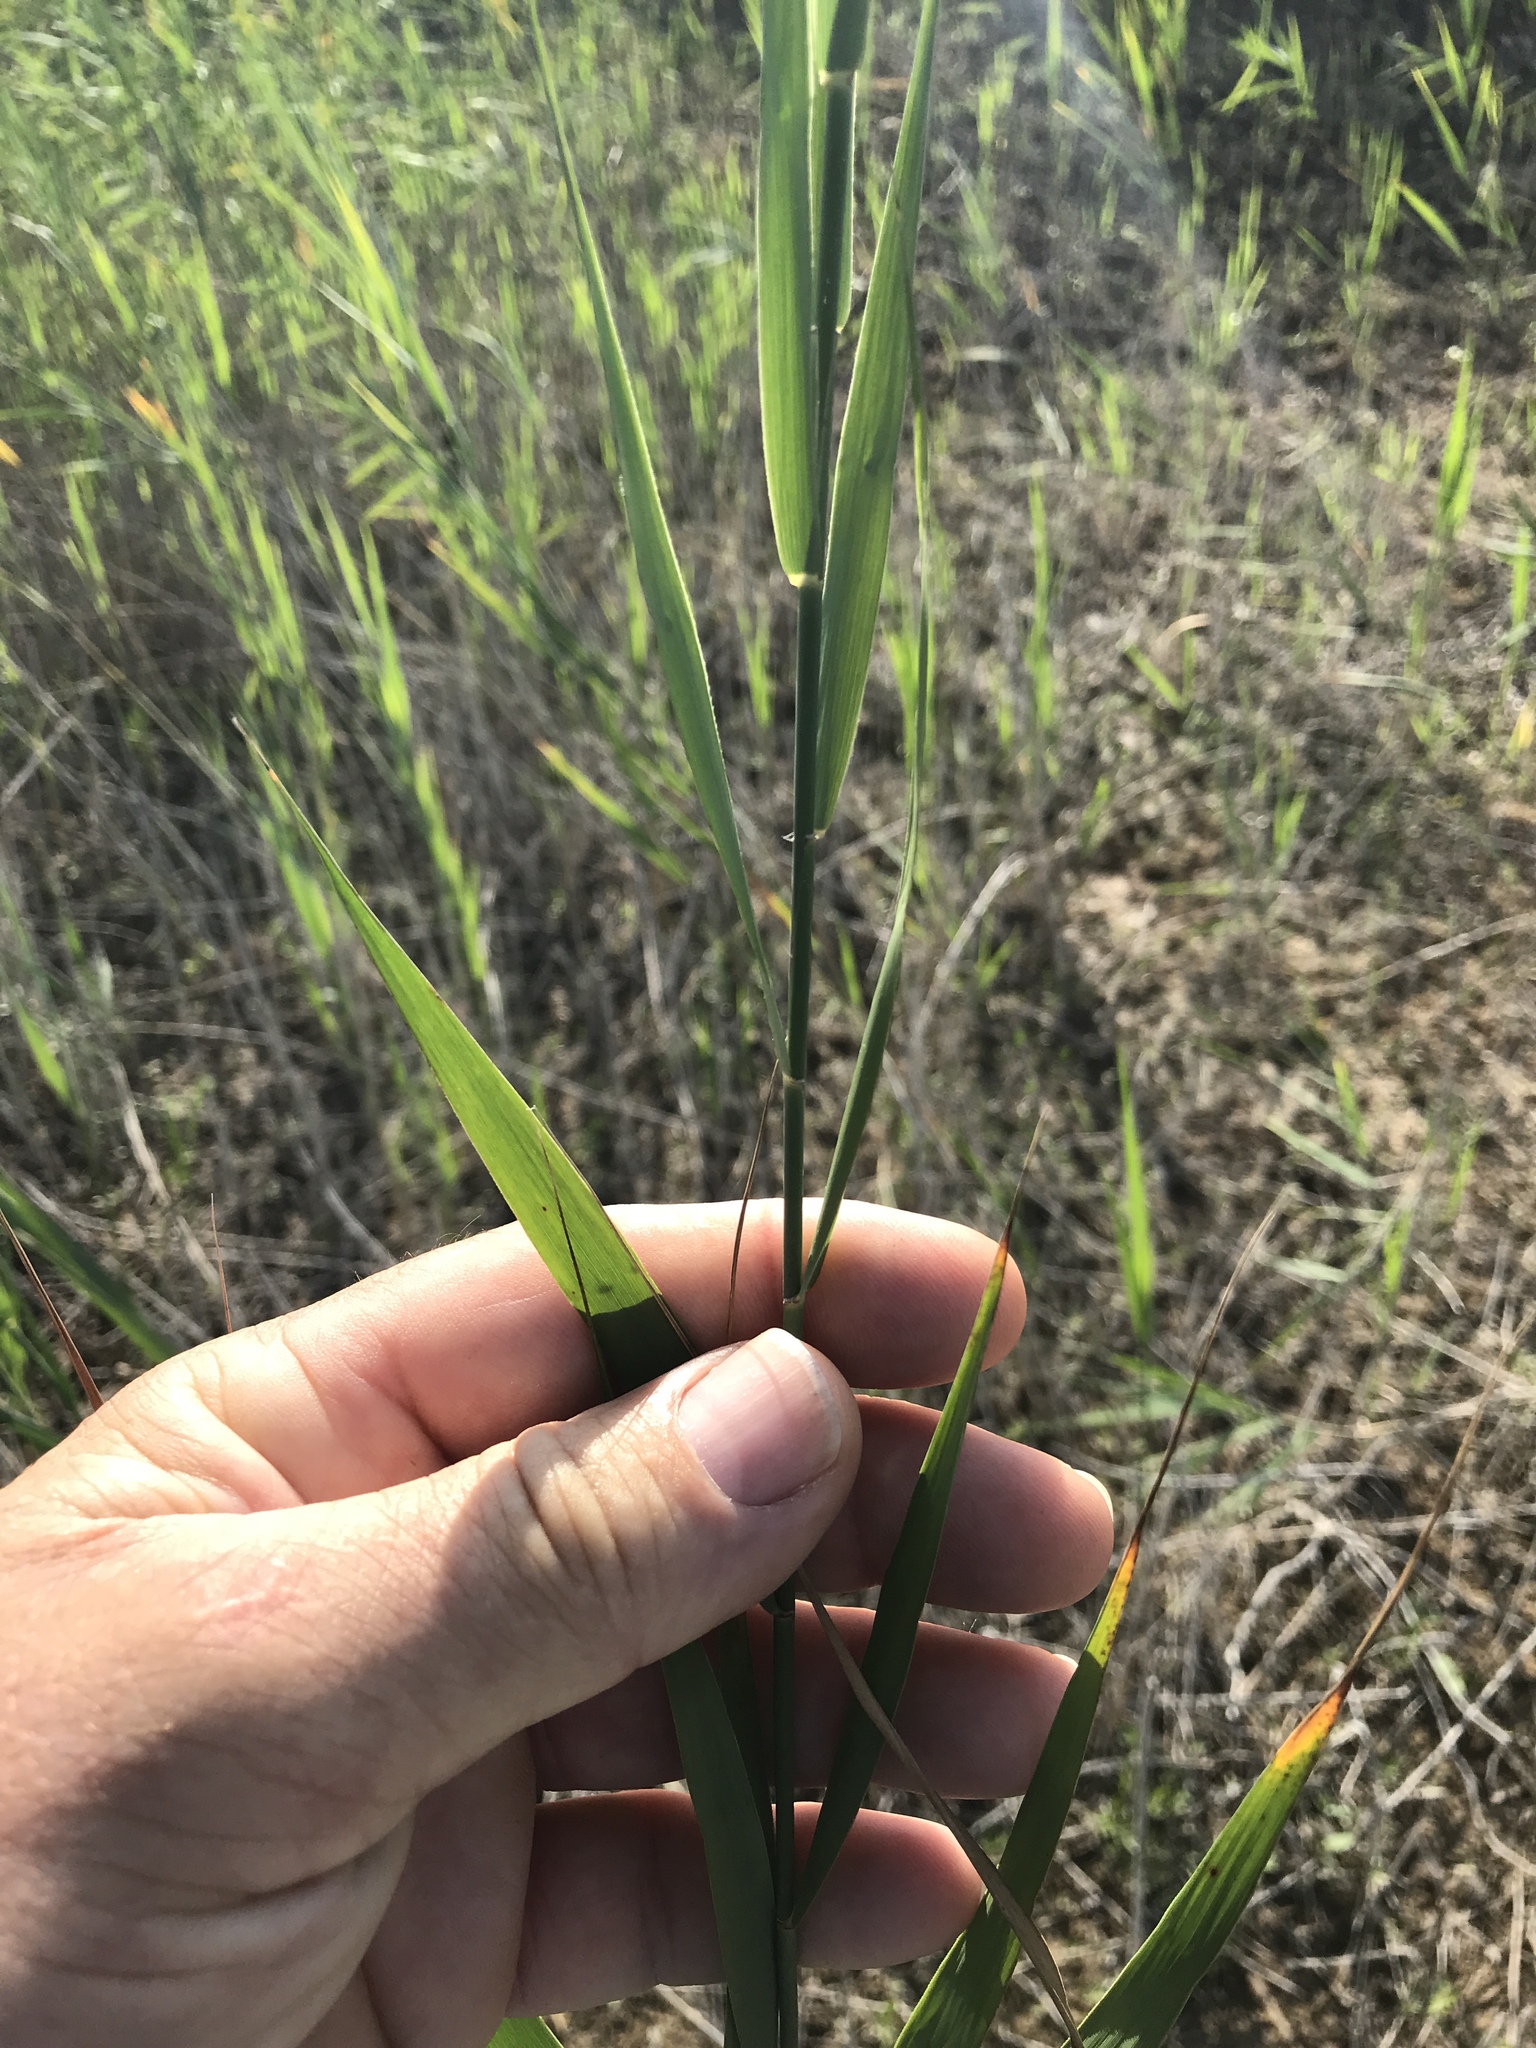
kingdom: Plantae
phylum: Tracheophyta
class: Liliopsida
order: Poales
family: Poaceae
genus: Phragmites
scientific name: Phragmites australis
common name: Common reed
